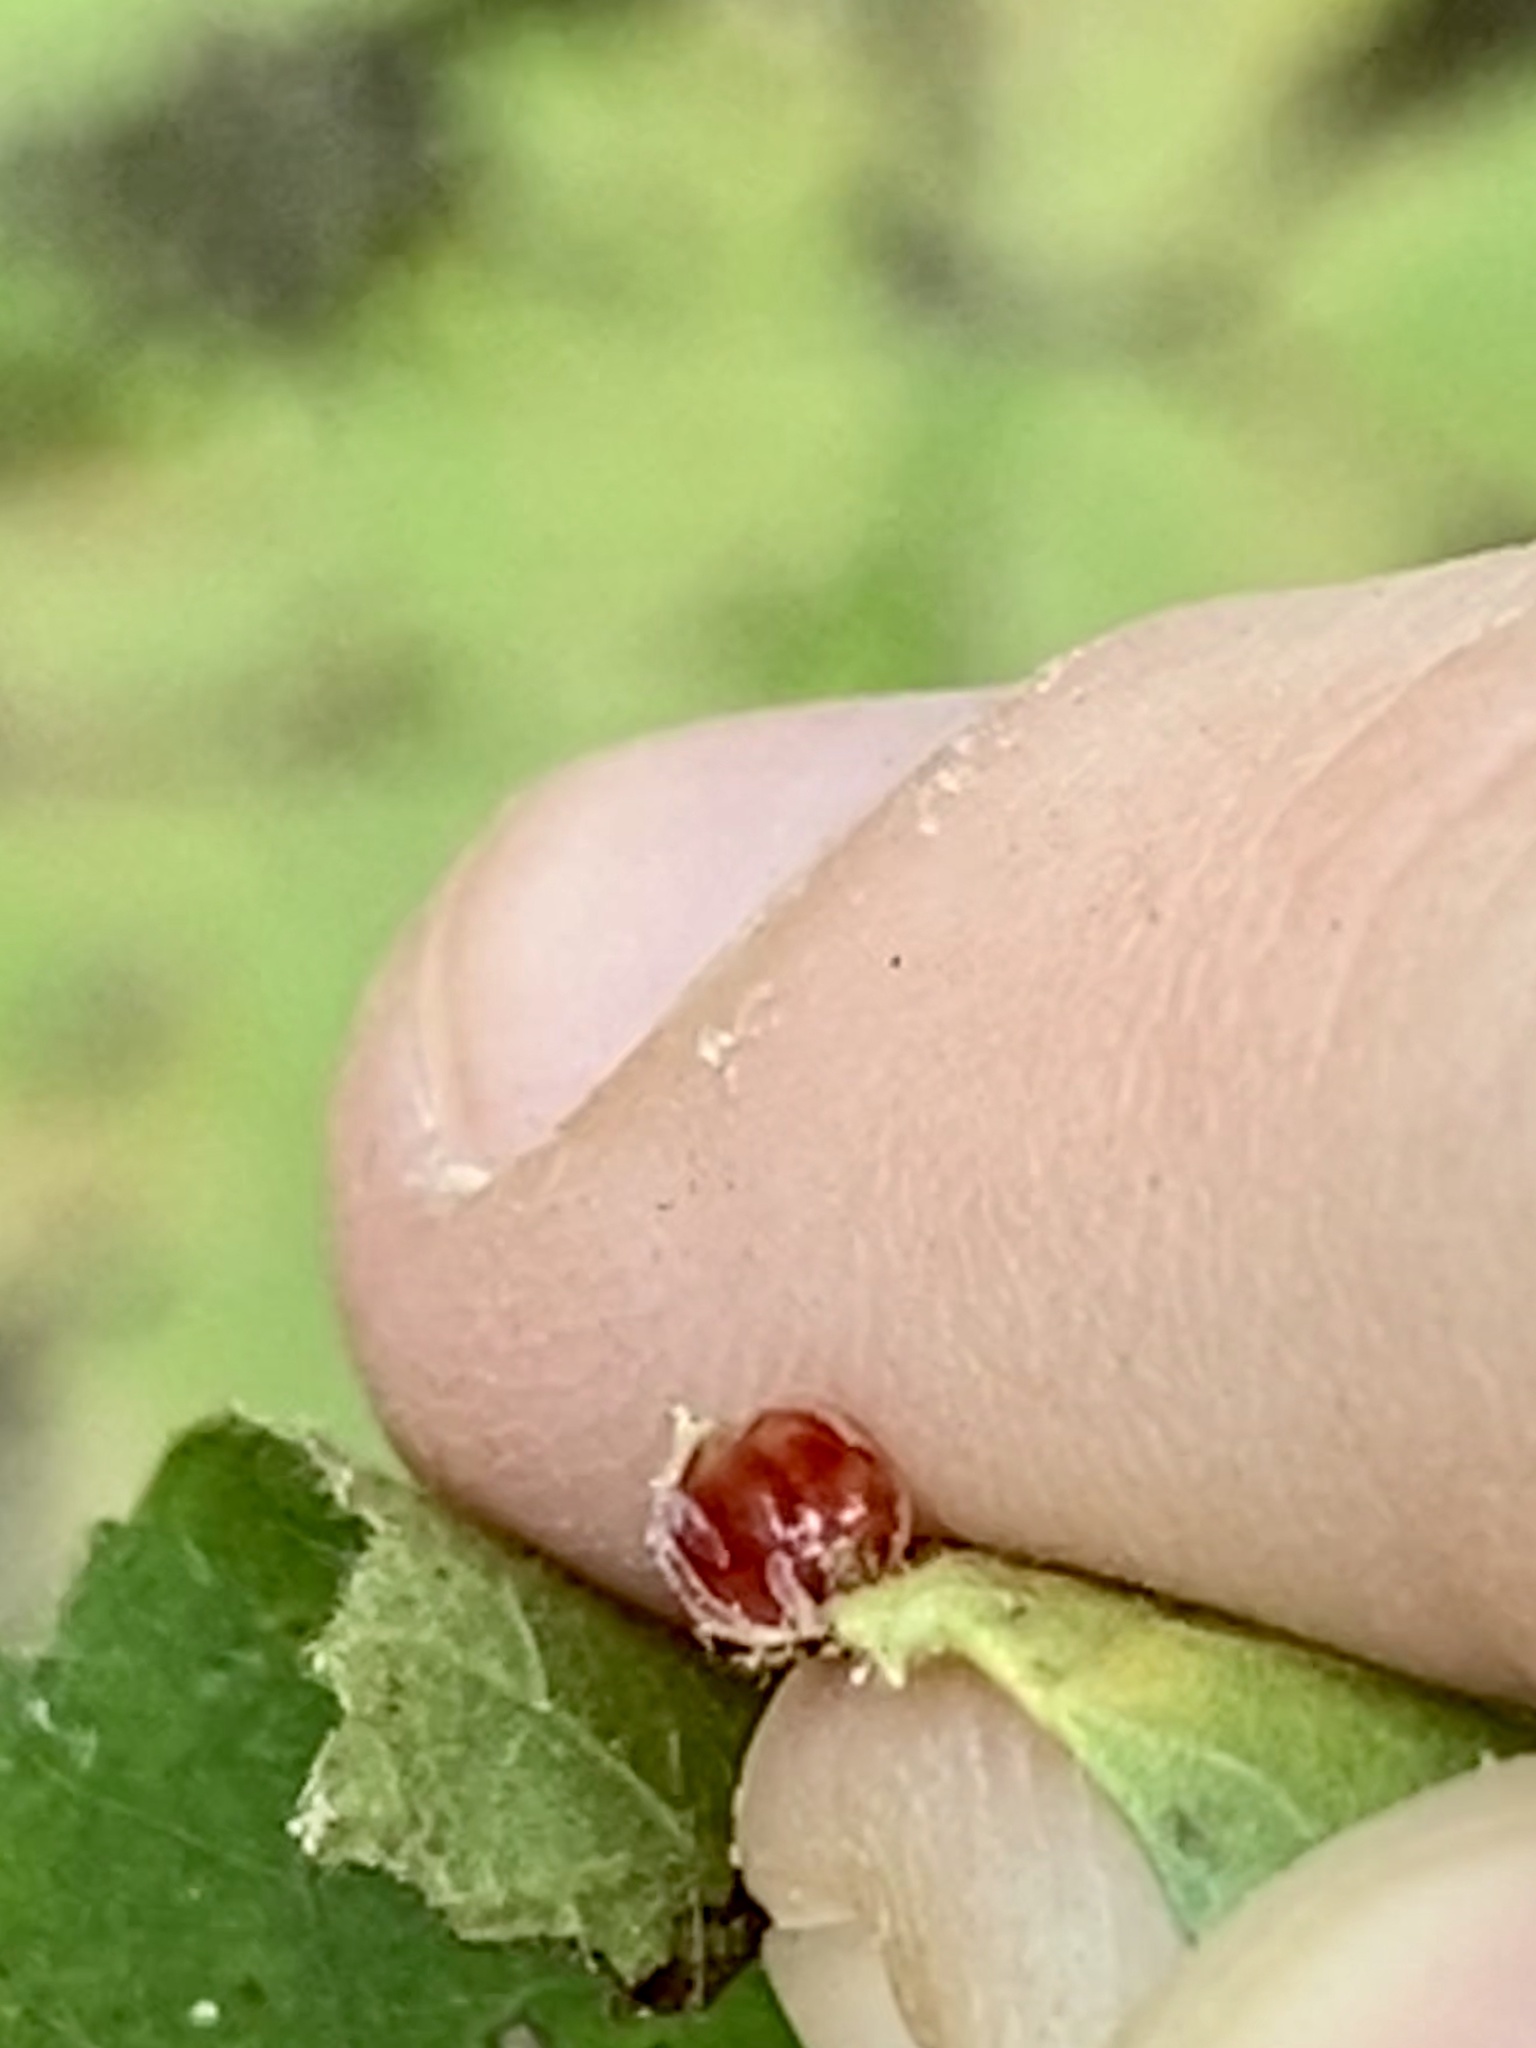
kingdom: Animalia
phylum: Arthropoda
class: Insecta
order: Diptera
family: Cecidomyiidae
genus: Caryomyia
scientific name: Caryomyia deflexipili
